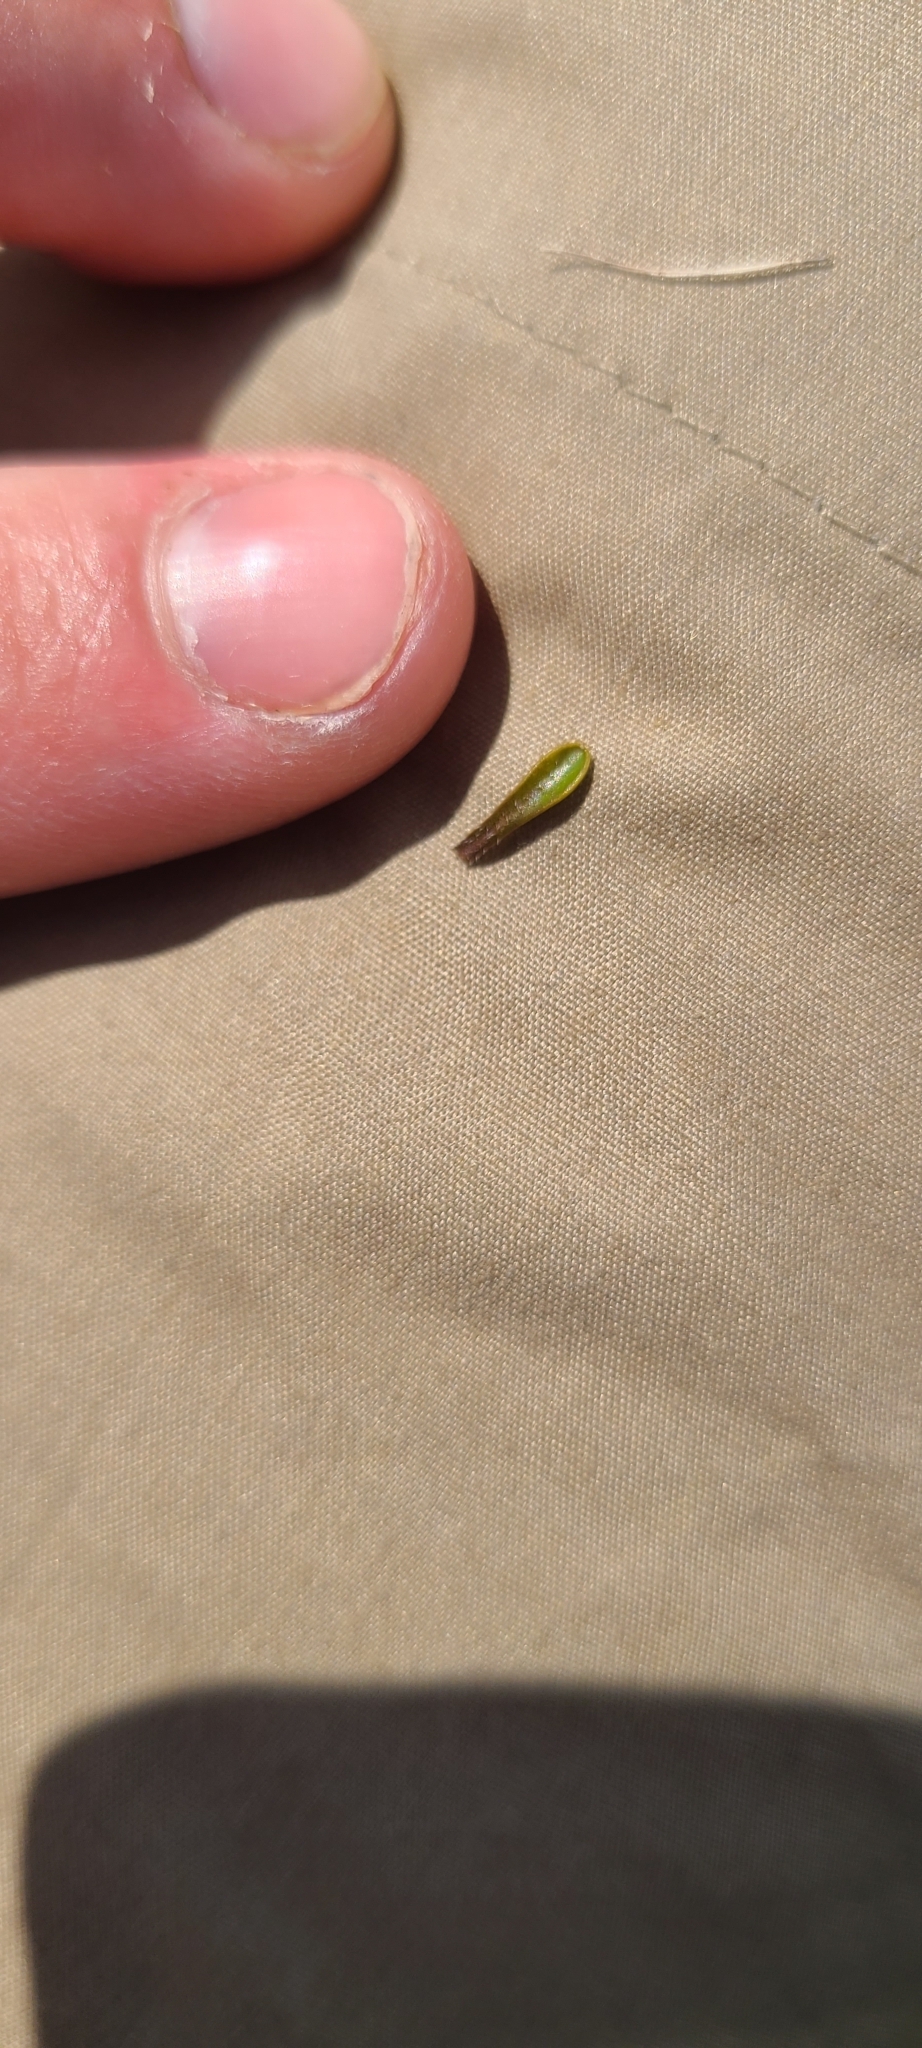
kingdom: Plantae
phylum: Tracheophyta
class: Magnoliopsida
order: Asterales
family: Campanulaceae
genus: Wahlenbergia
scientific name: Wahlenbergia albomarginata
